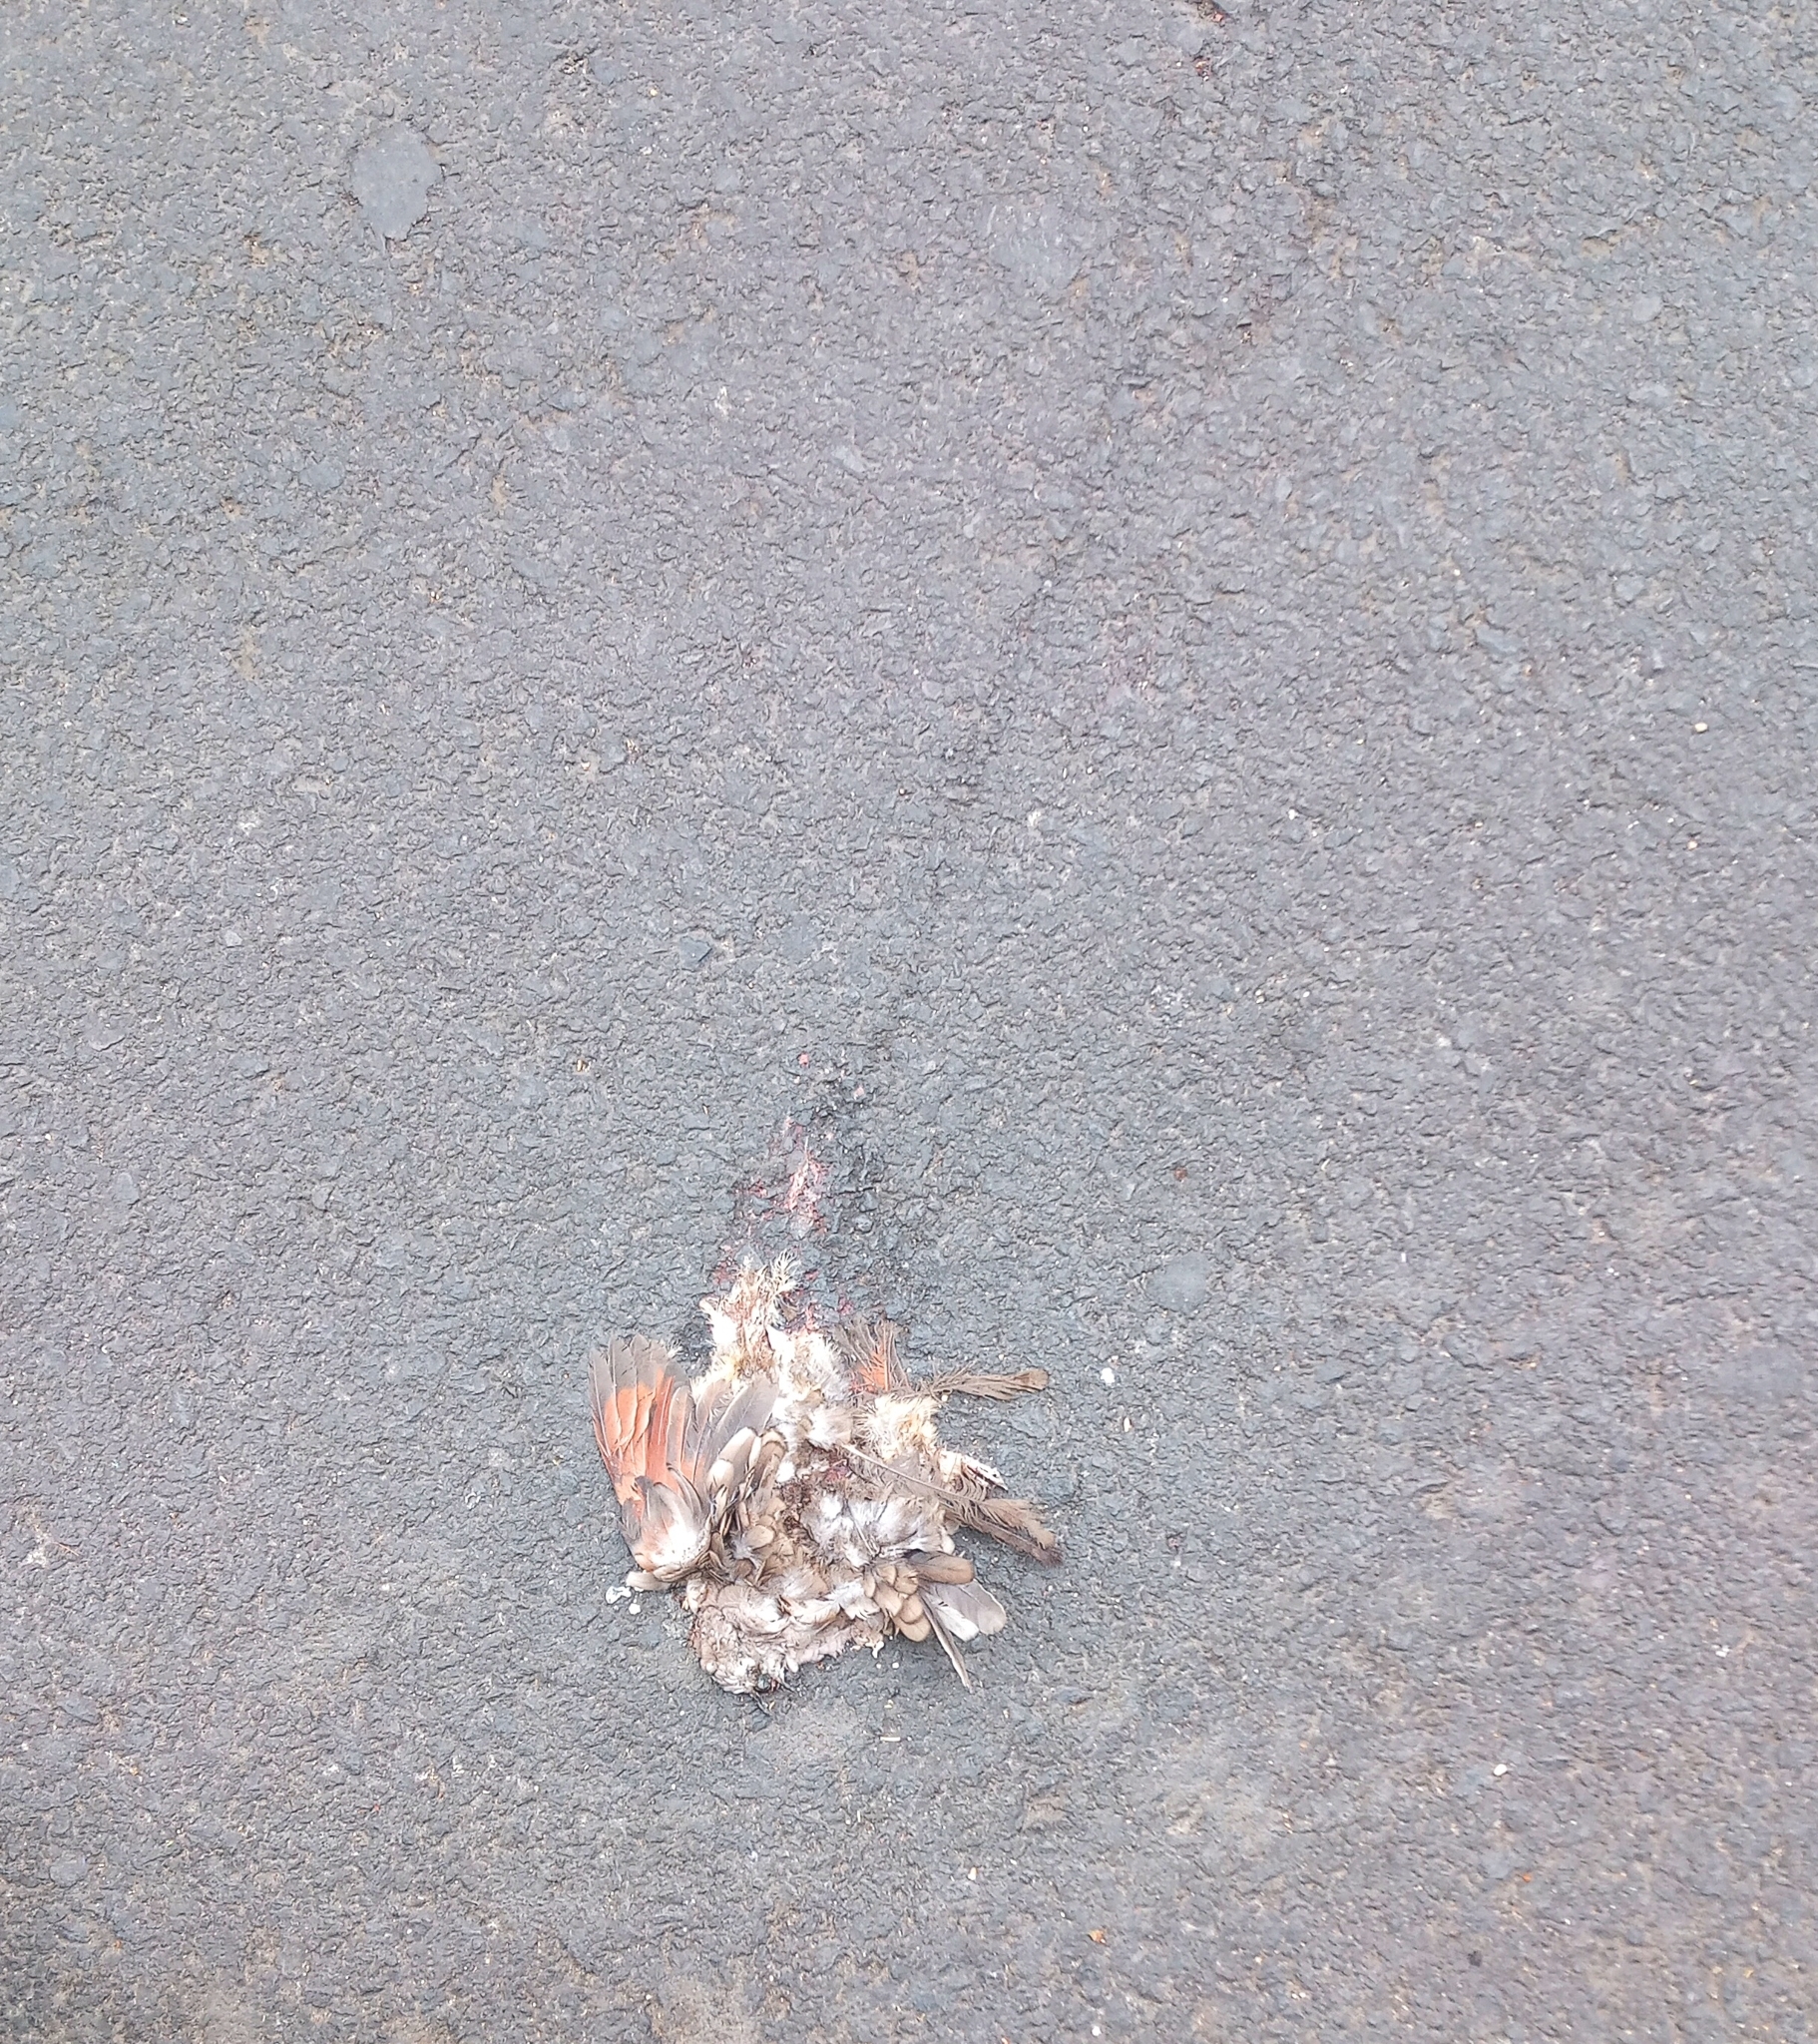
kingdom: Animalia
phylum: Chordata
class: Aves
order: Columbiformes
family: Columbidae
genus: Columbina
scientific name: Columbina inca
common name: Inca dove
